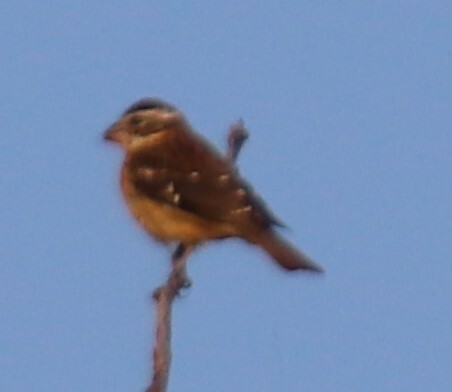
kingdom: Animalia
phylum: Chordata
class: Aves
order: Passeriformes
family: Cardinalidae
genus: Pheucticus
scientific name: Pheucticus ludovicianus
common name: Rose-breasted grosbeak
